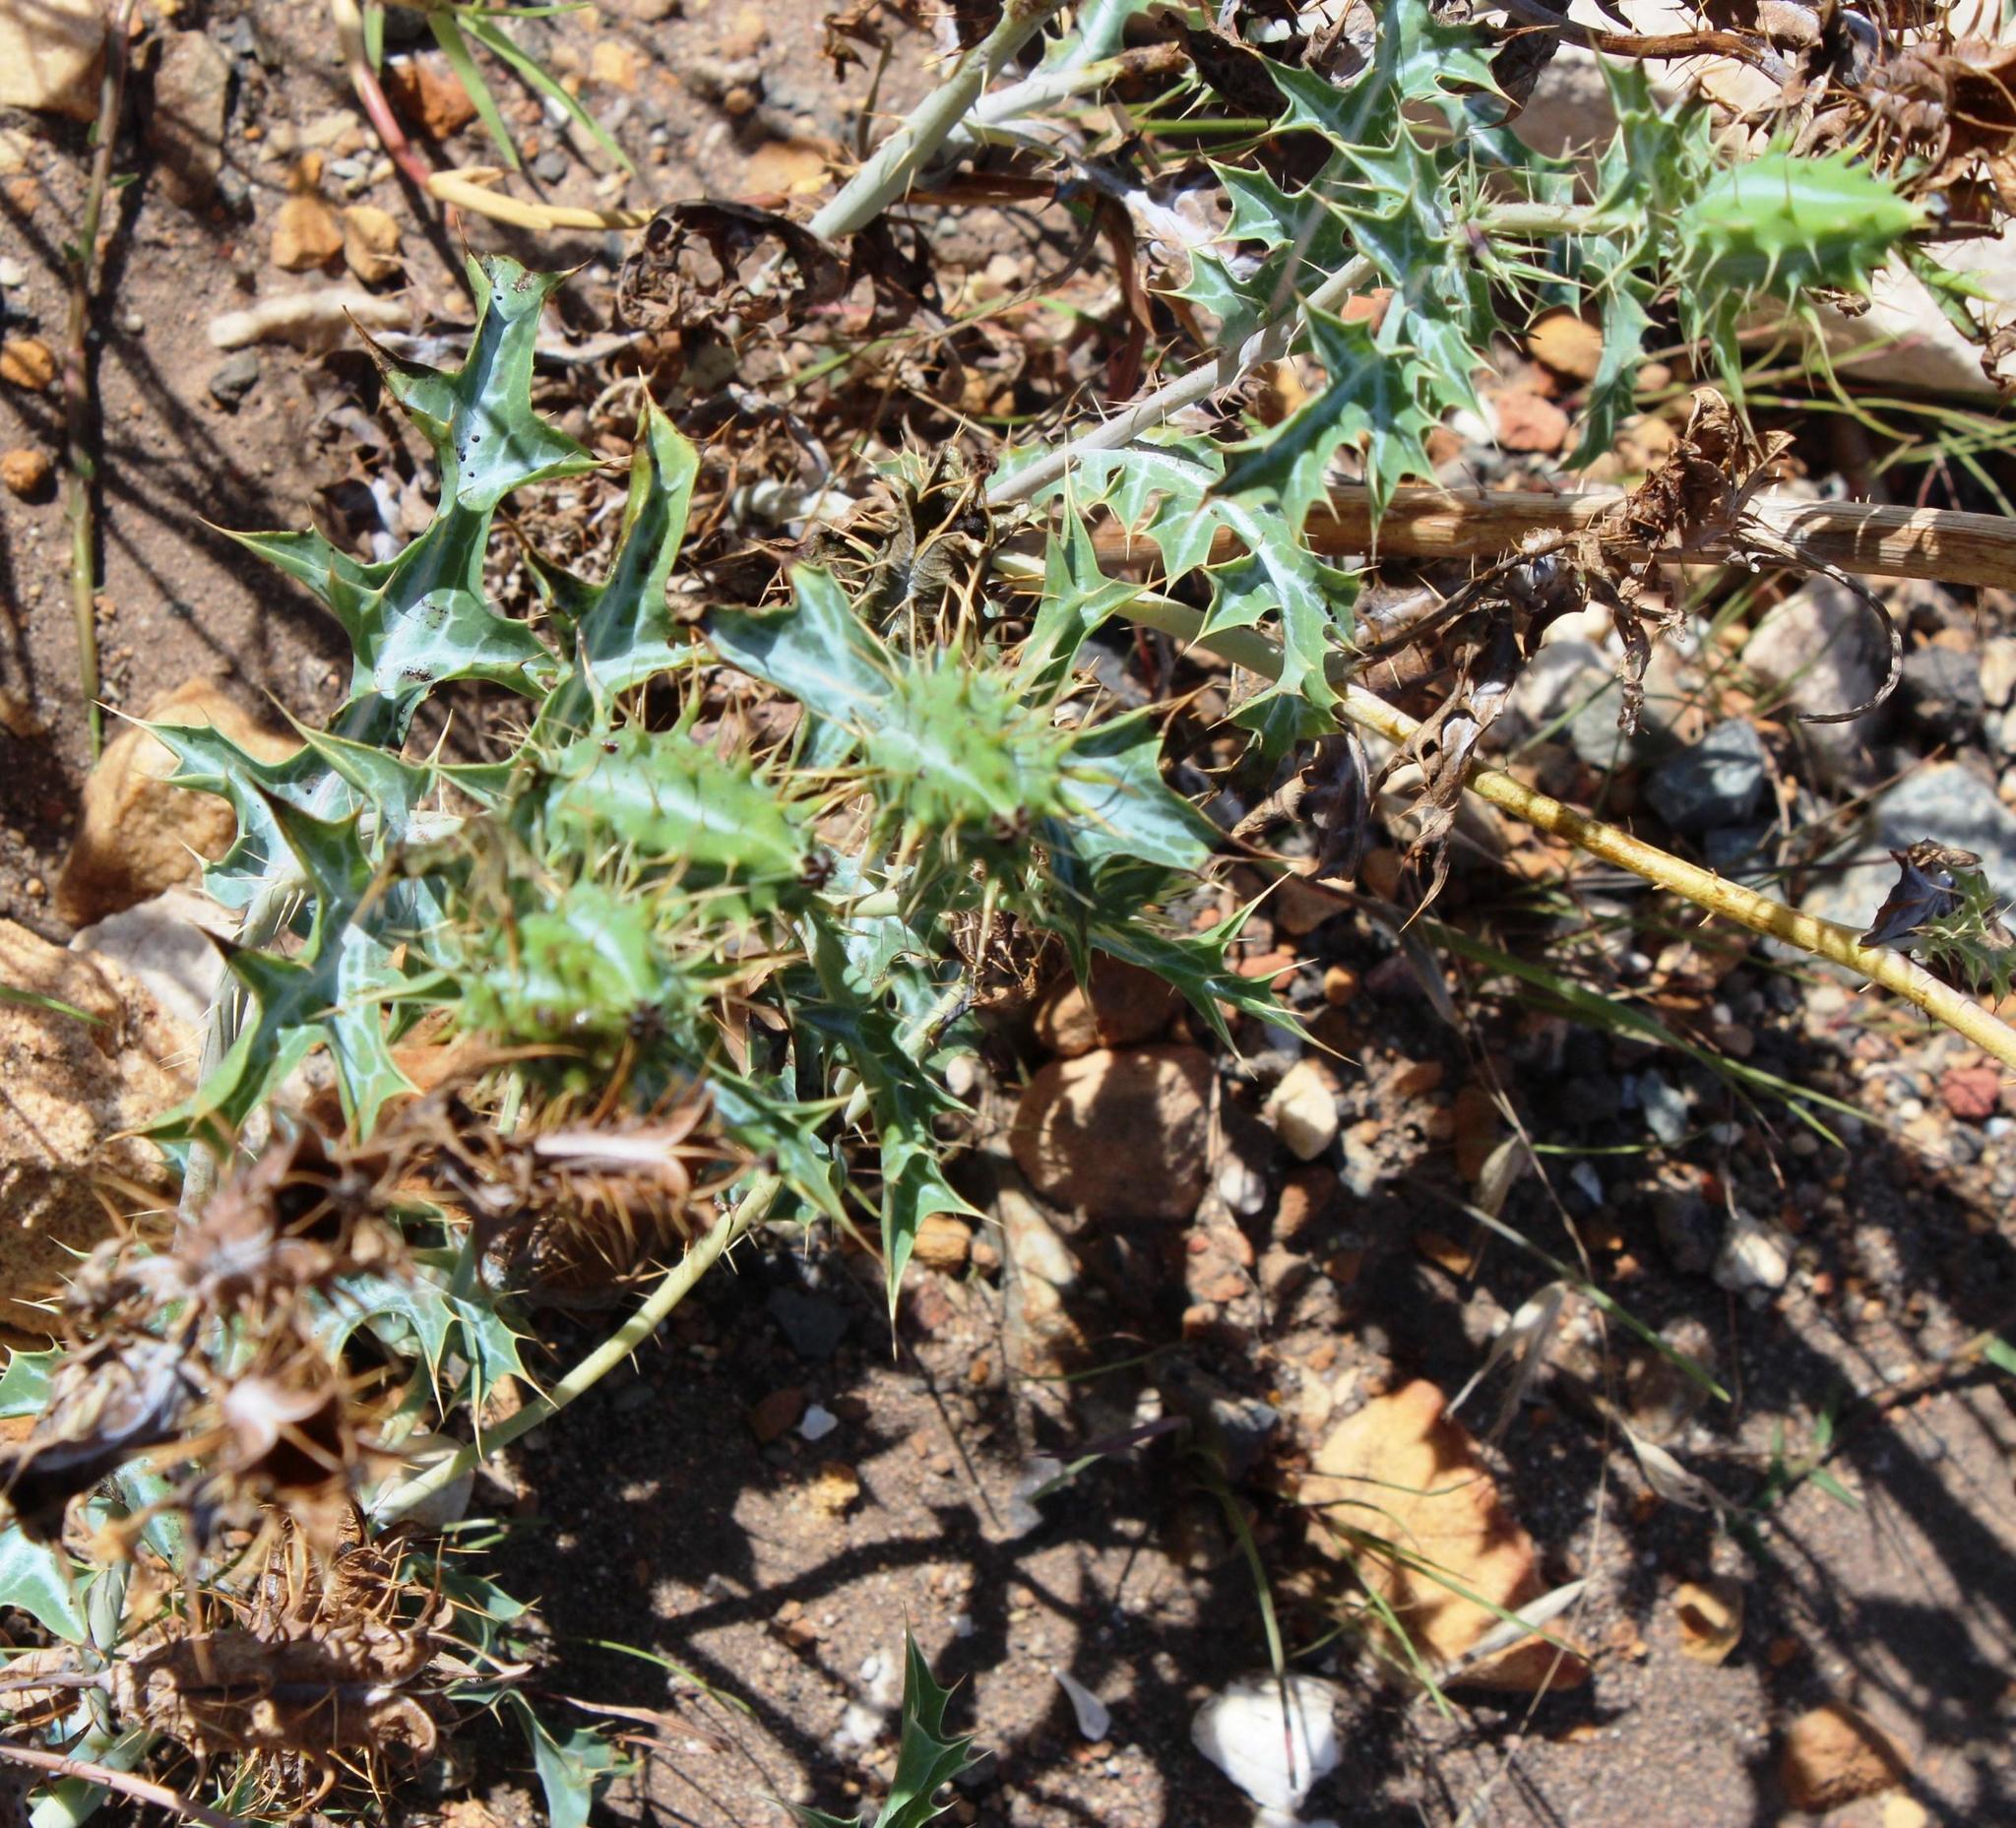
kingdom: Plantae
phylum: Tracheophyta
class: Magnoliopsida
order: Ranunculales
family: Papaveraceae
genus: Argemone
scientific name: Argemone ochroleuca
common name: White-flower mexican-poppy
